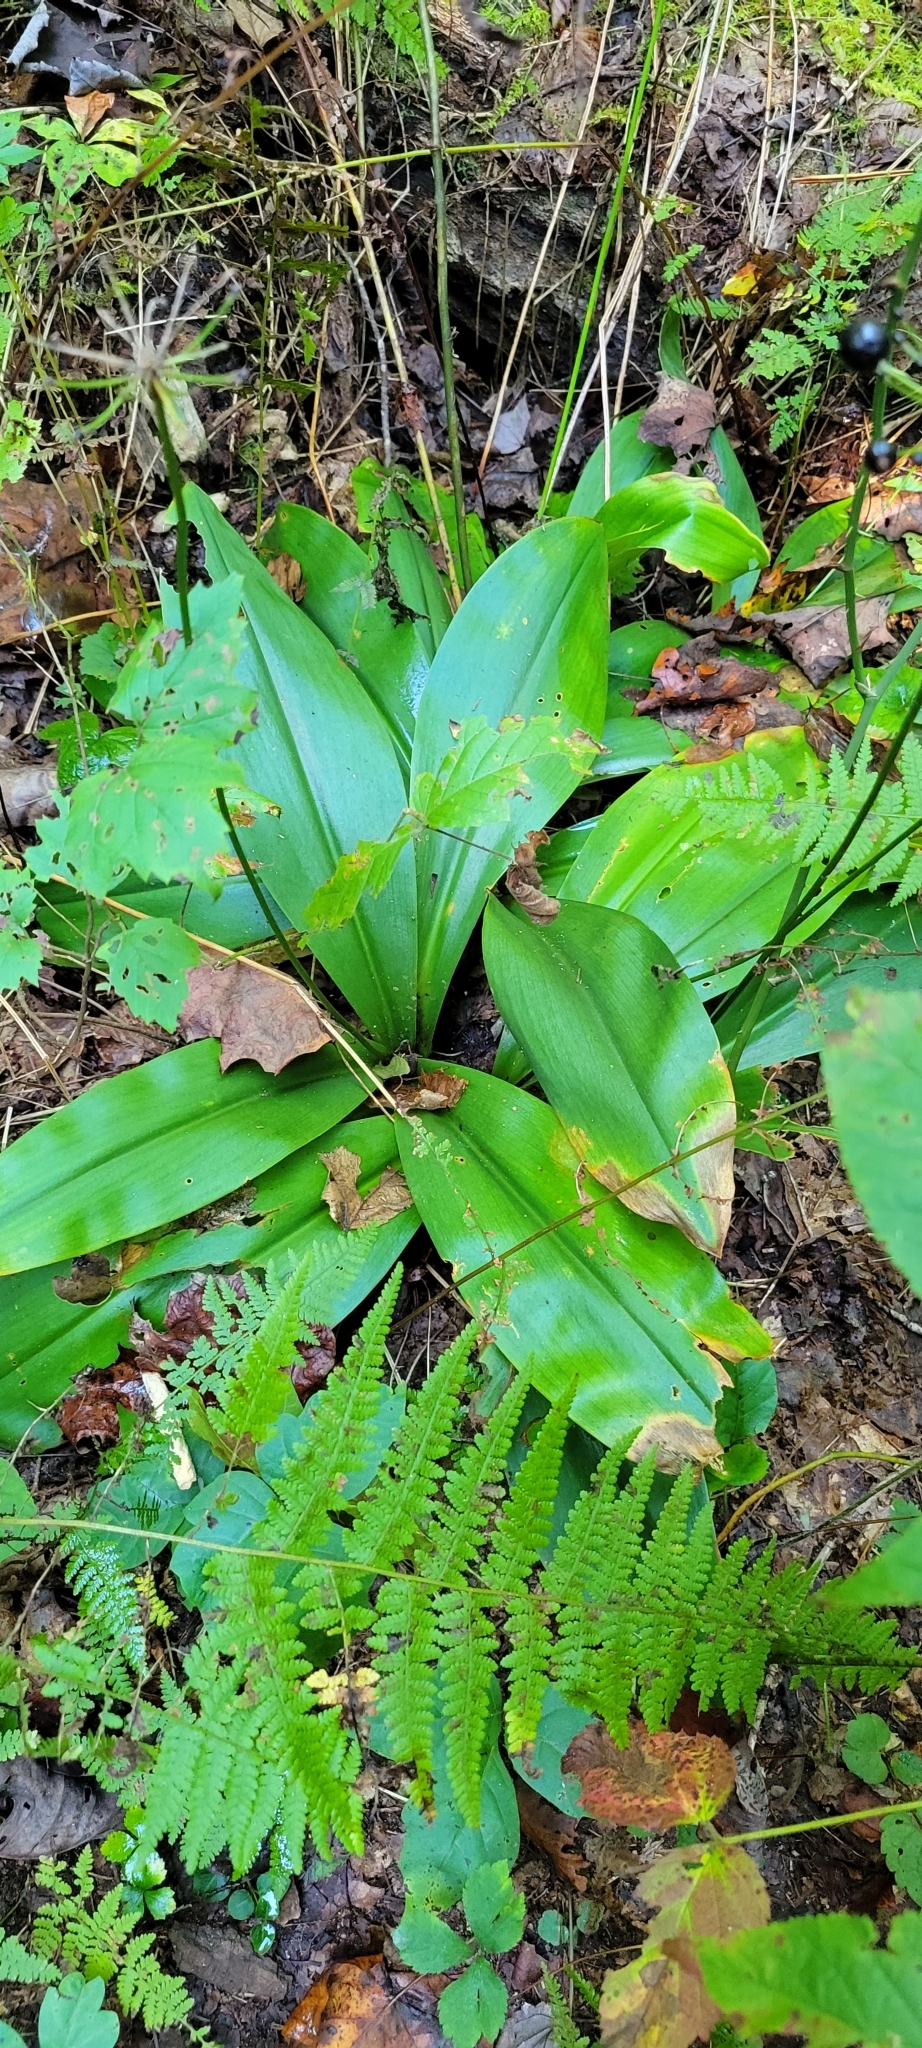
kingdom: Plantae
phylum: Tracheophyta
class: Liliopsida
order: Liliales
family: Liliaceae
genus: Clintonia
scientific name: Clintonia umbellulata
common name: Speckle wood-lily
